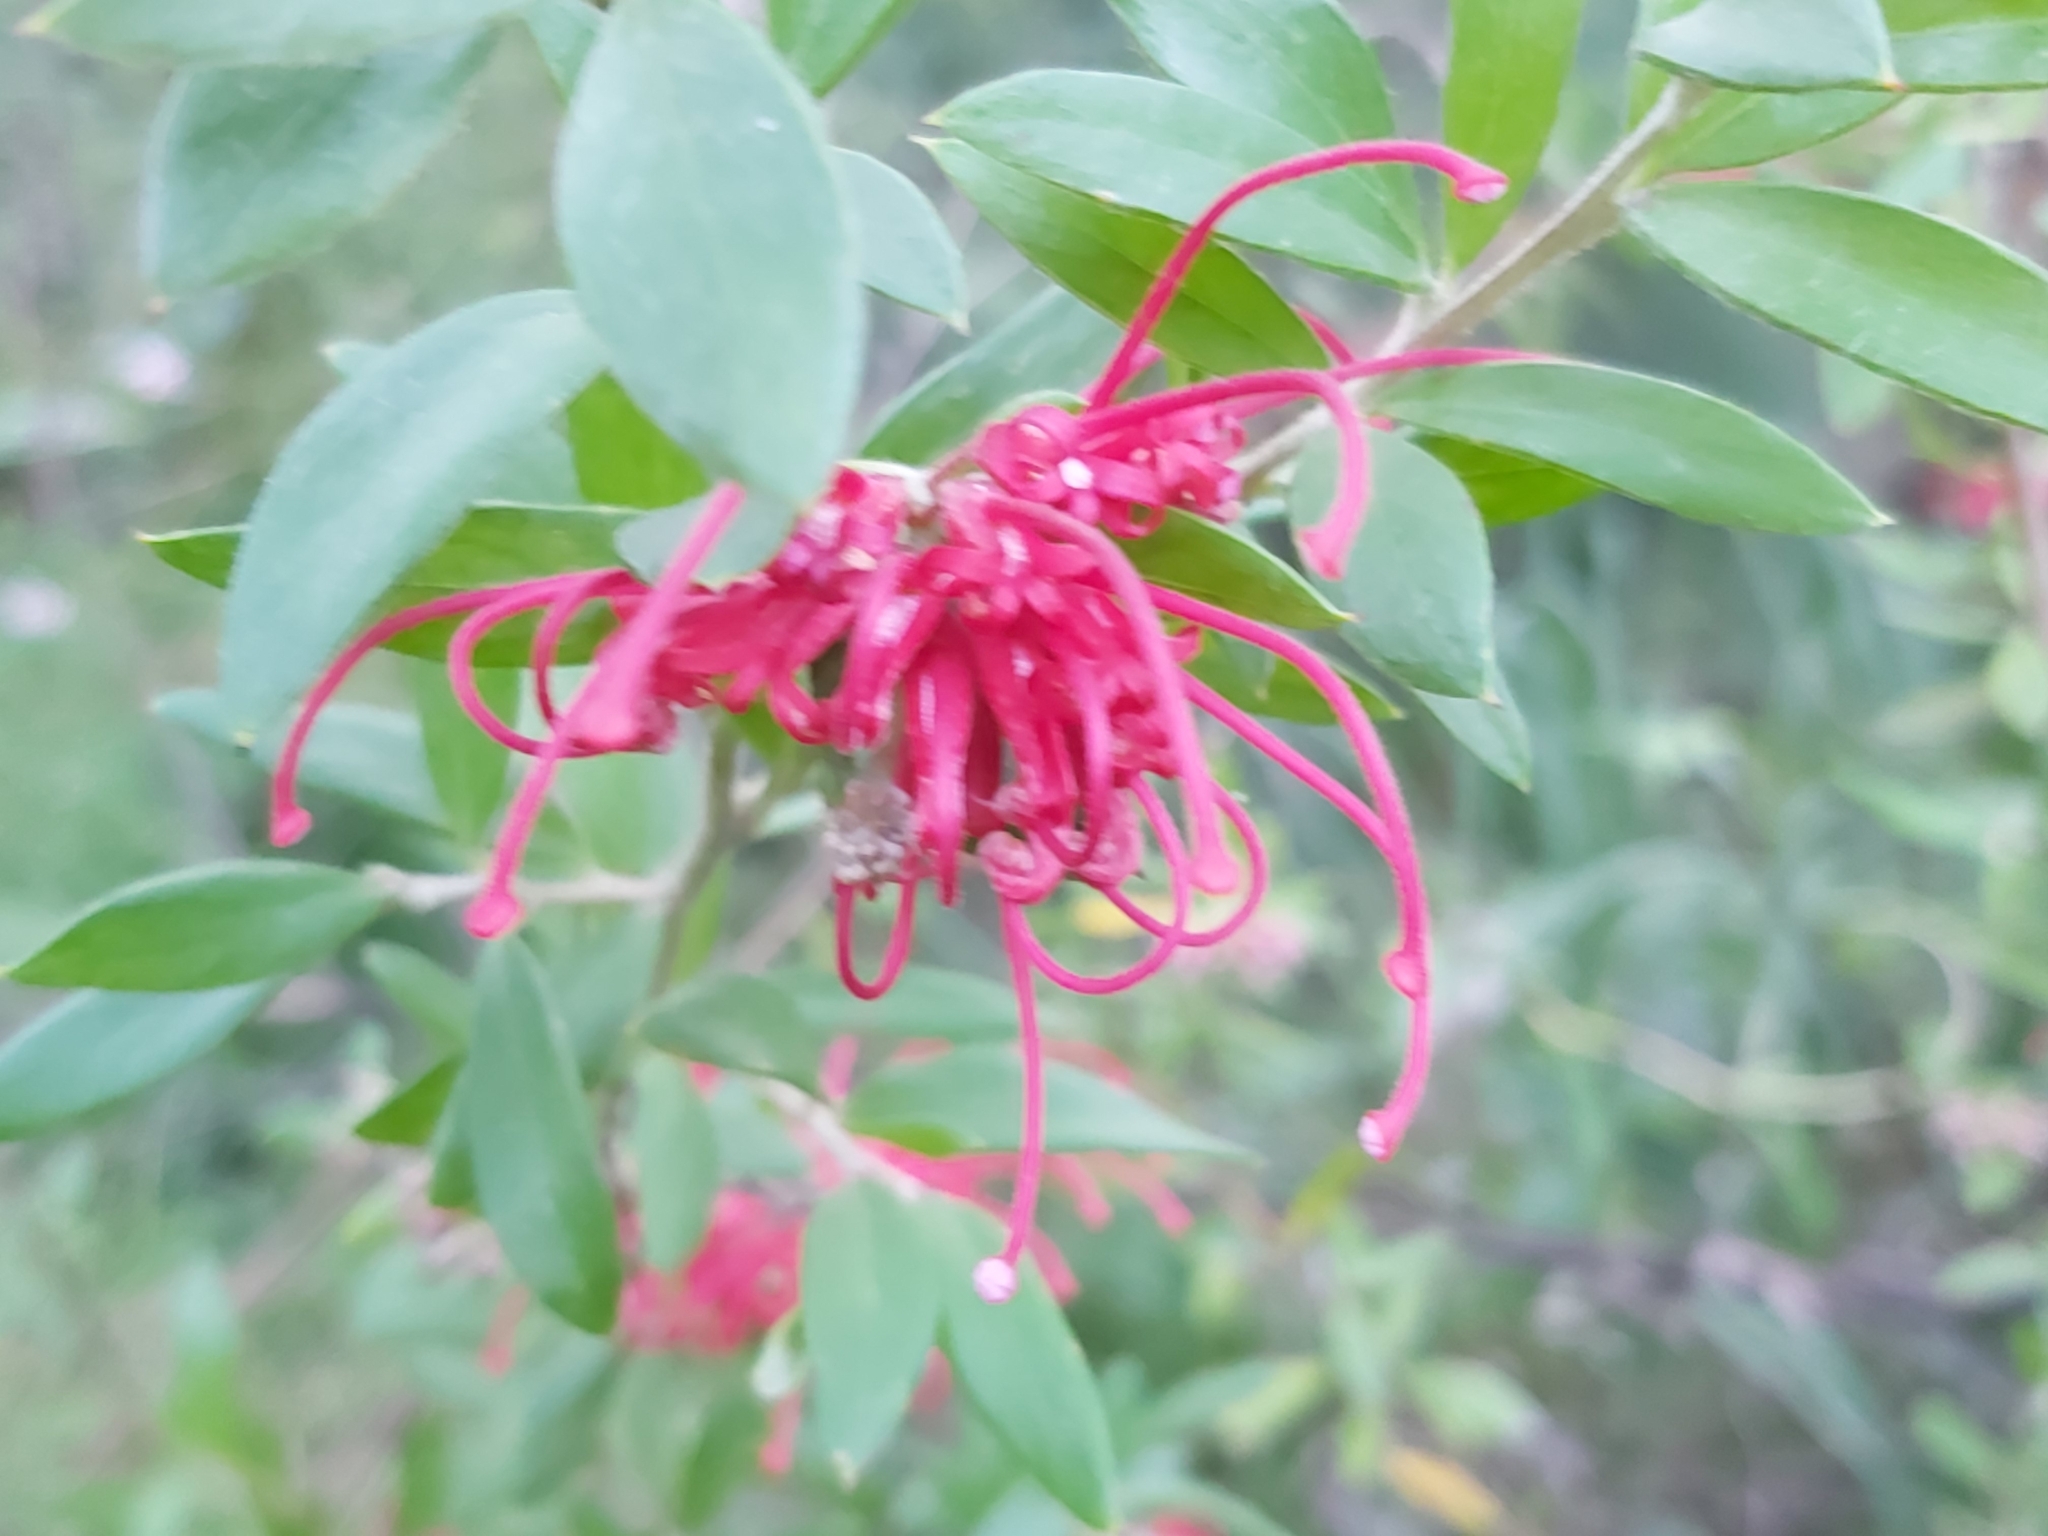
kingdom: Plantae
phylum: Tracheophyta
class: Magnoliopsida
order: Proteales
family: Proteaceae
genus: Grevillea
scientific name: Grevillea speciosa
